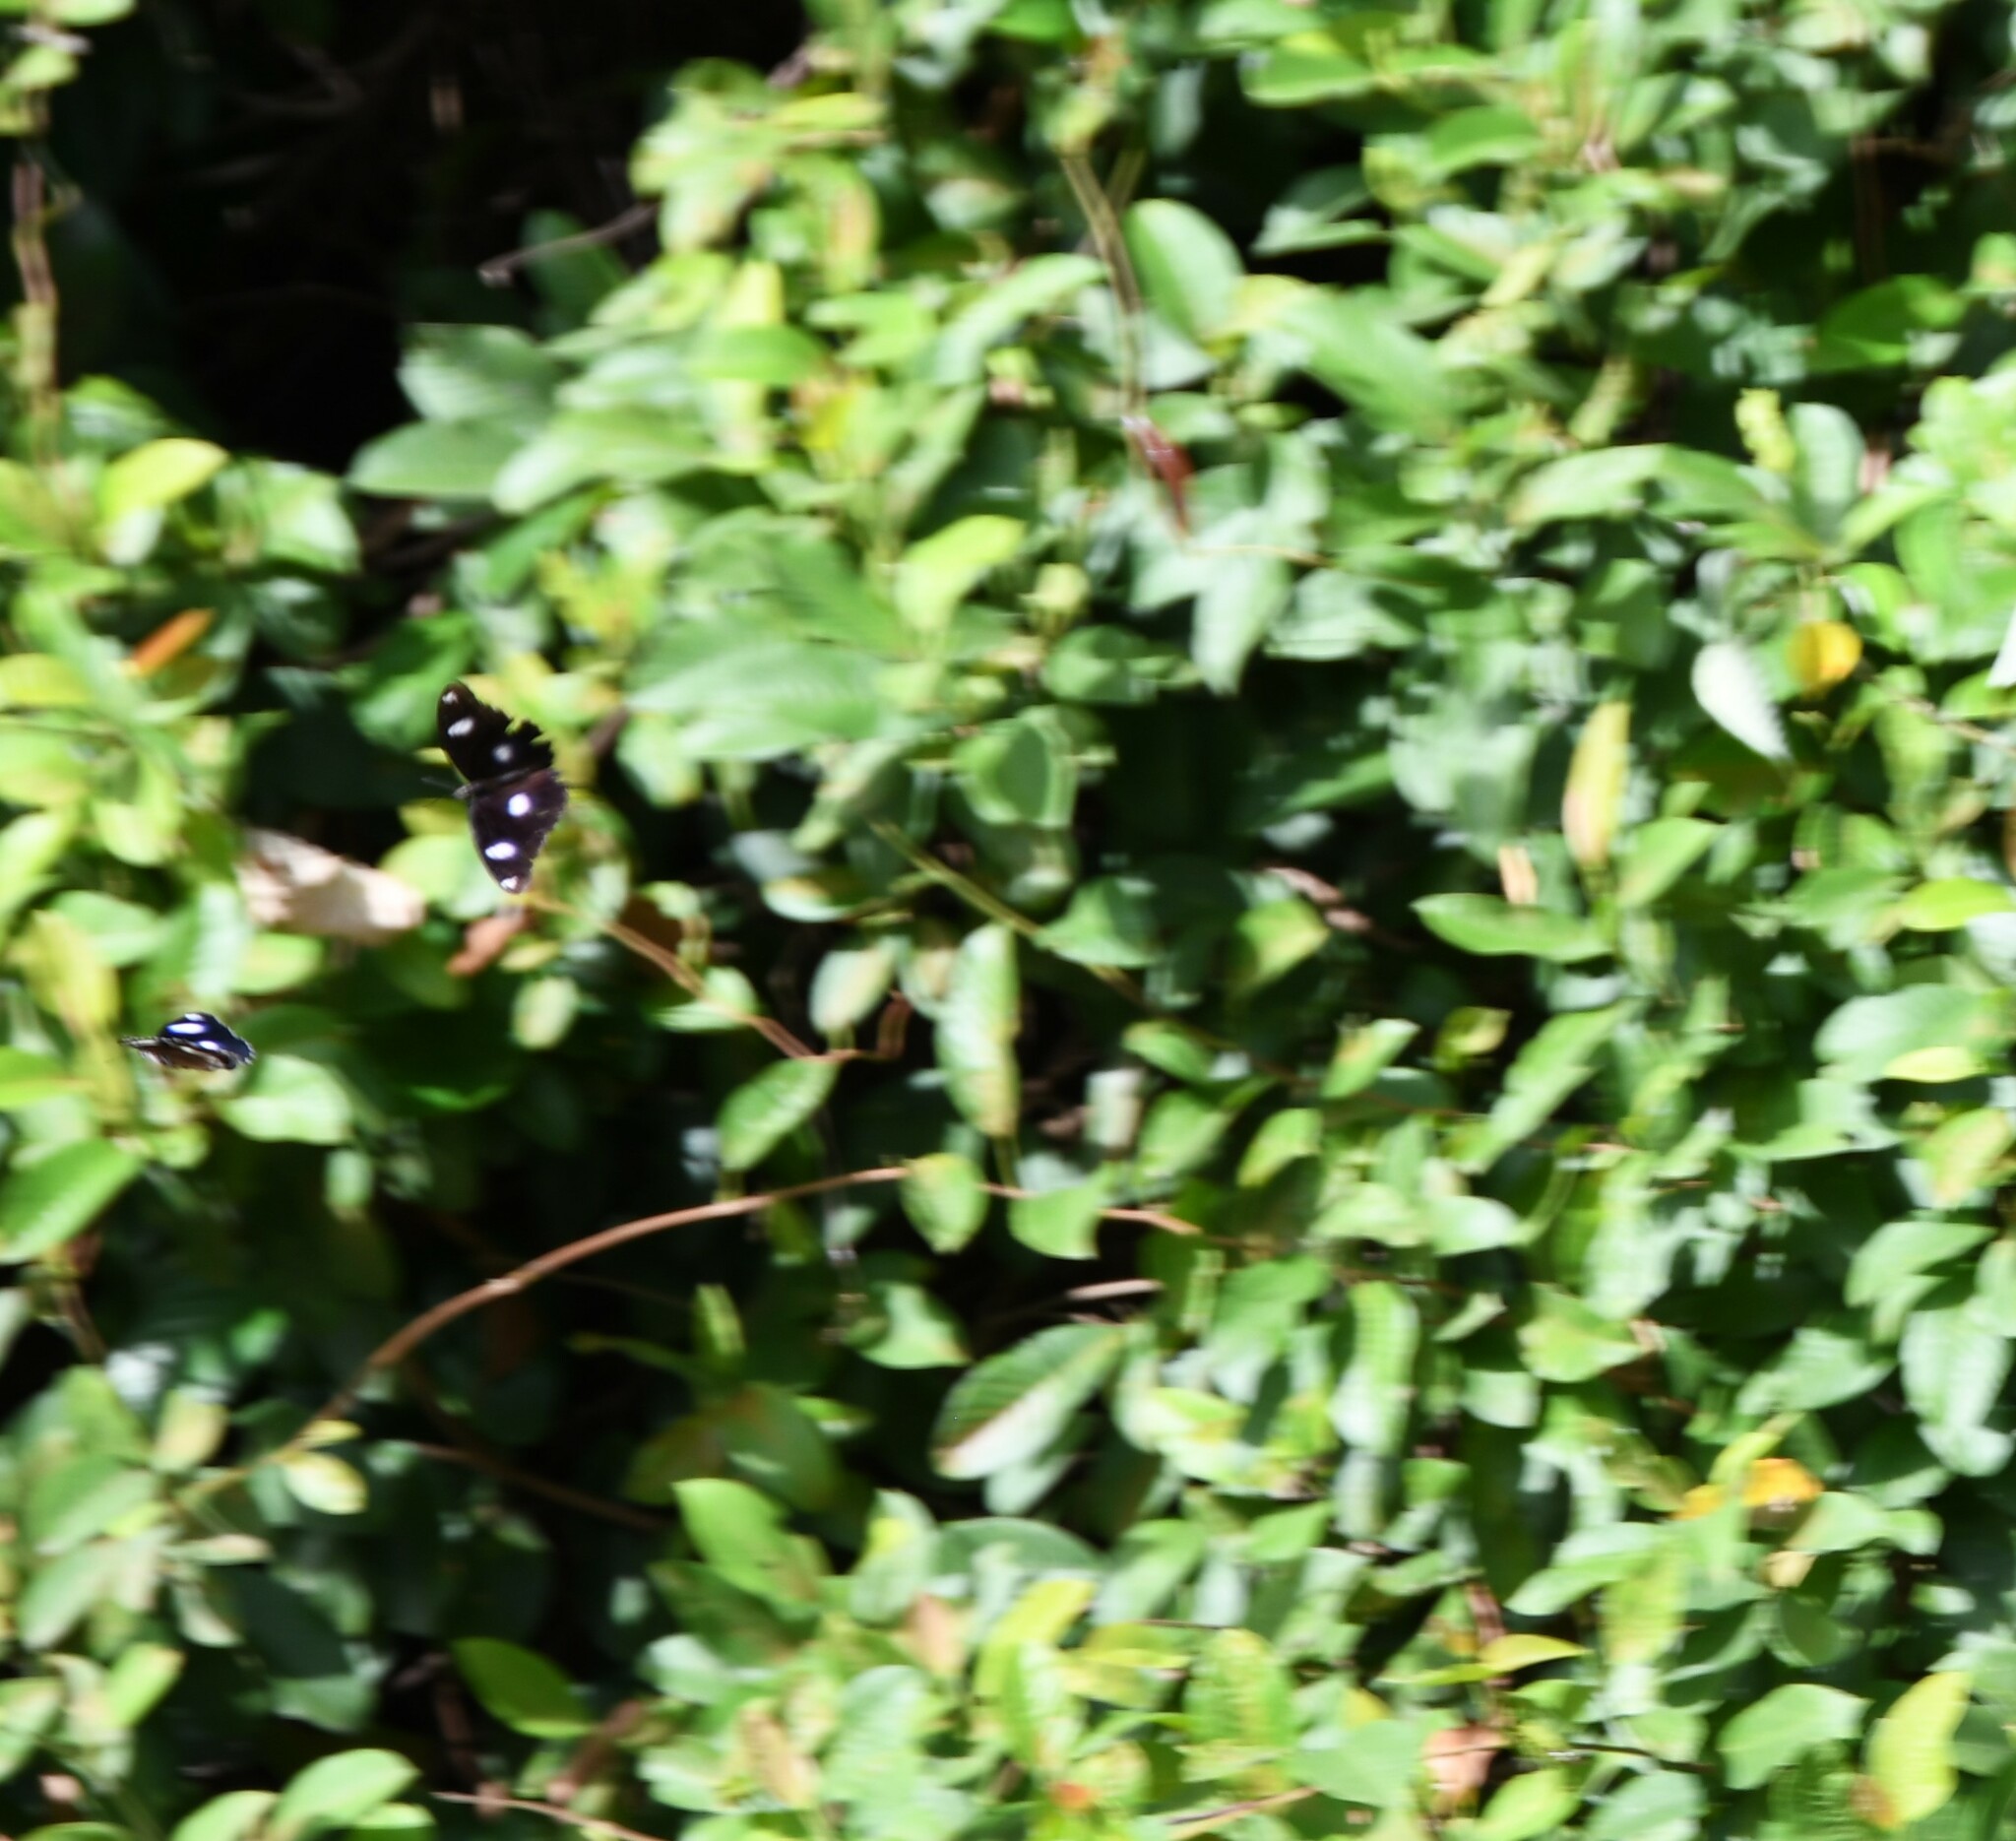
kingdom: Animalia
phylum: Arthropoda
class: Insecta
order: Lepidoptera
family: Nymphalidae
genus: Hypolimnas
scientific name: Hypolimnas bolina
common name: Great eggfly
